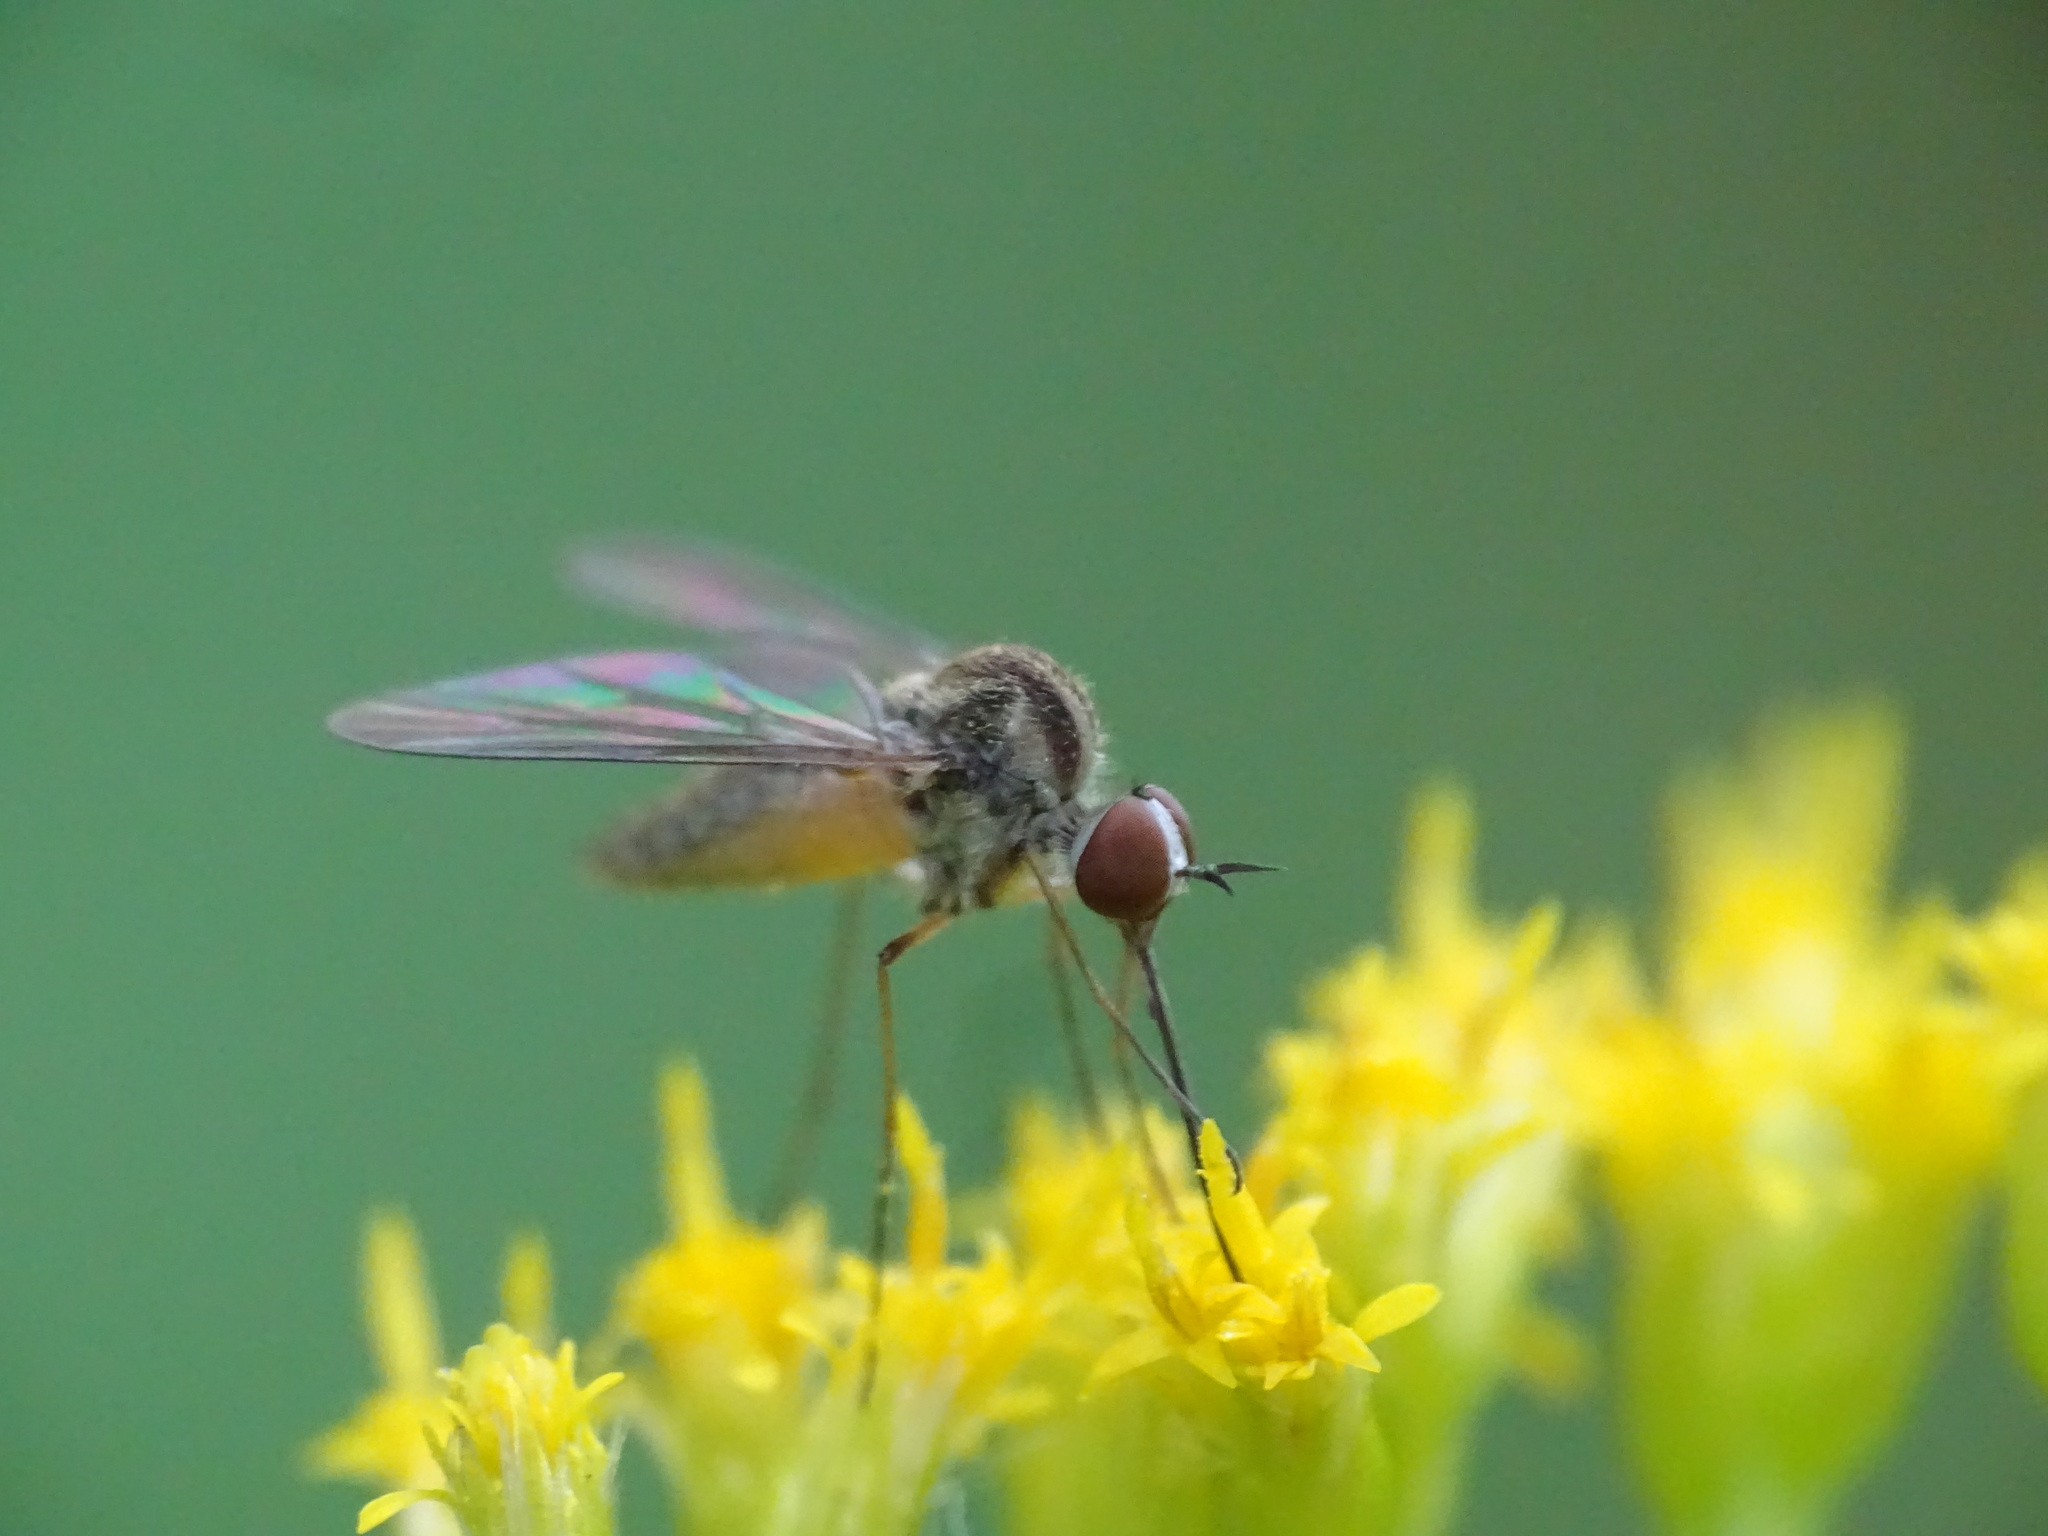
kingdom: Animalia
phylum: Arthropoda
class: Insecta
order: Diptera
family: Bombyliidae
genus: Geron
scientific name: Geron calvus
